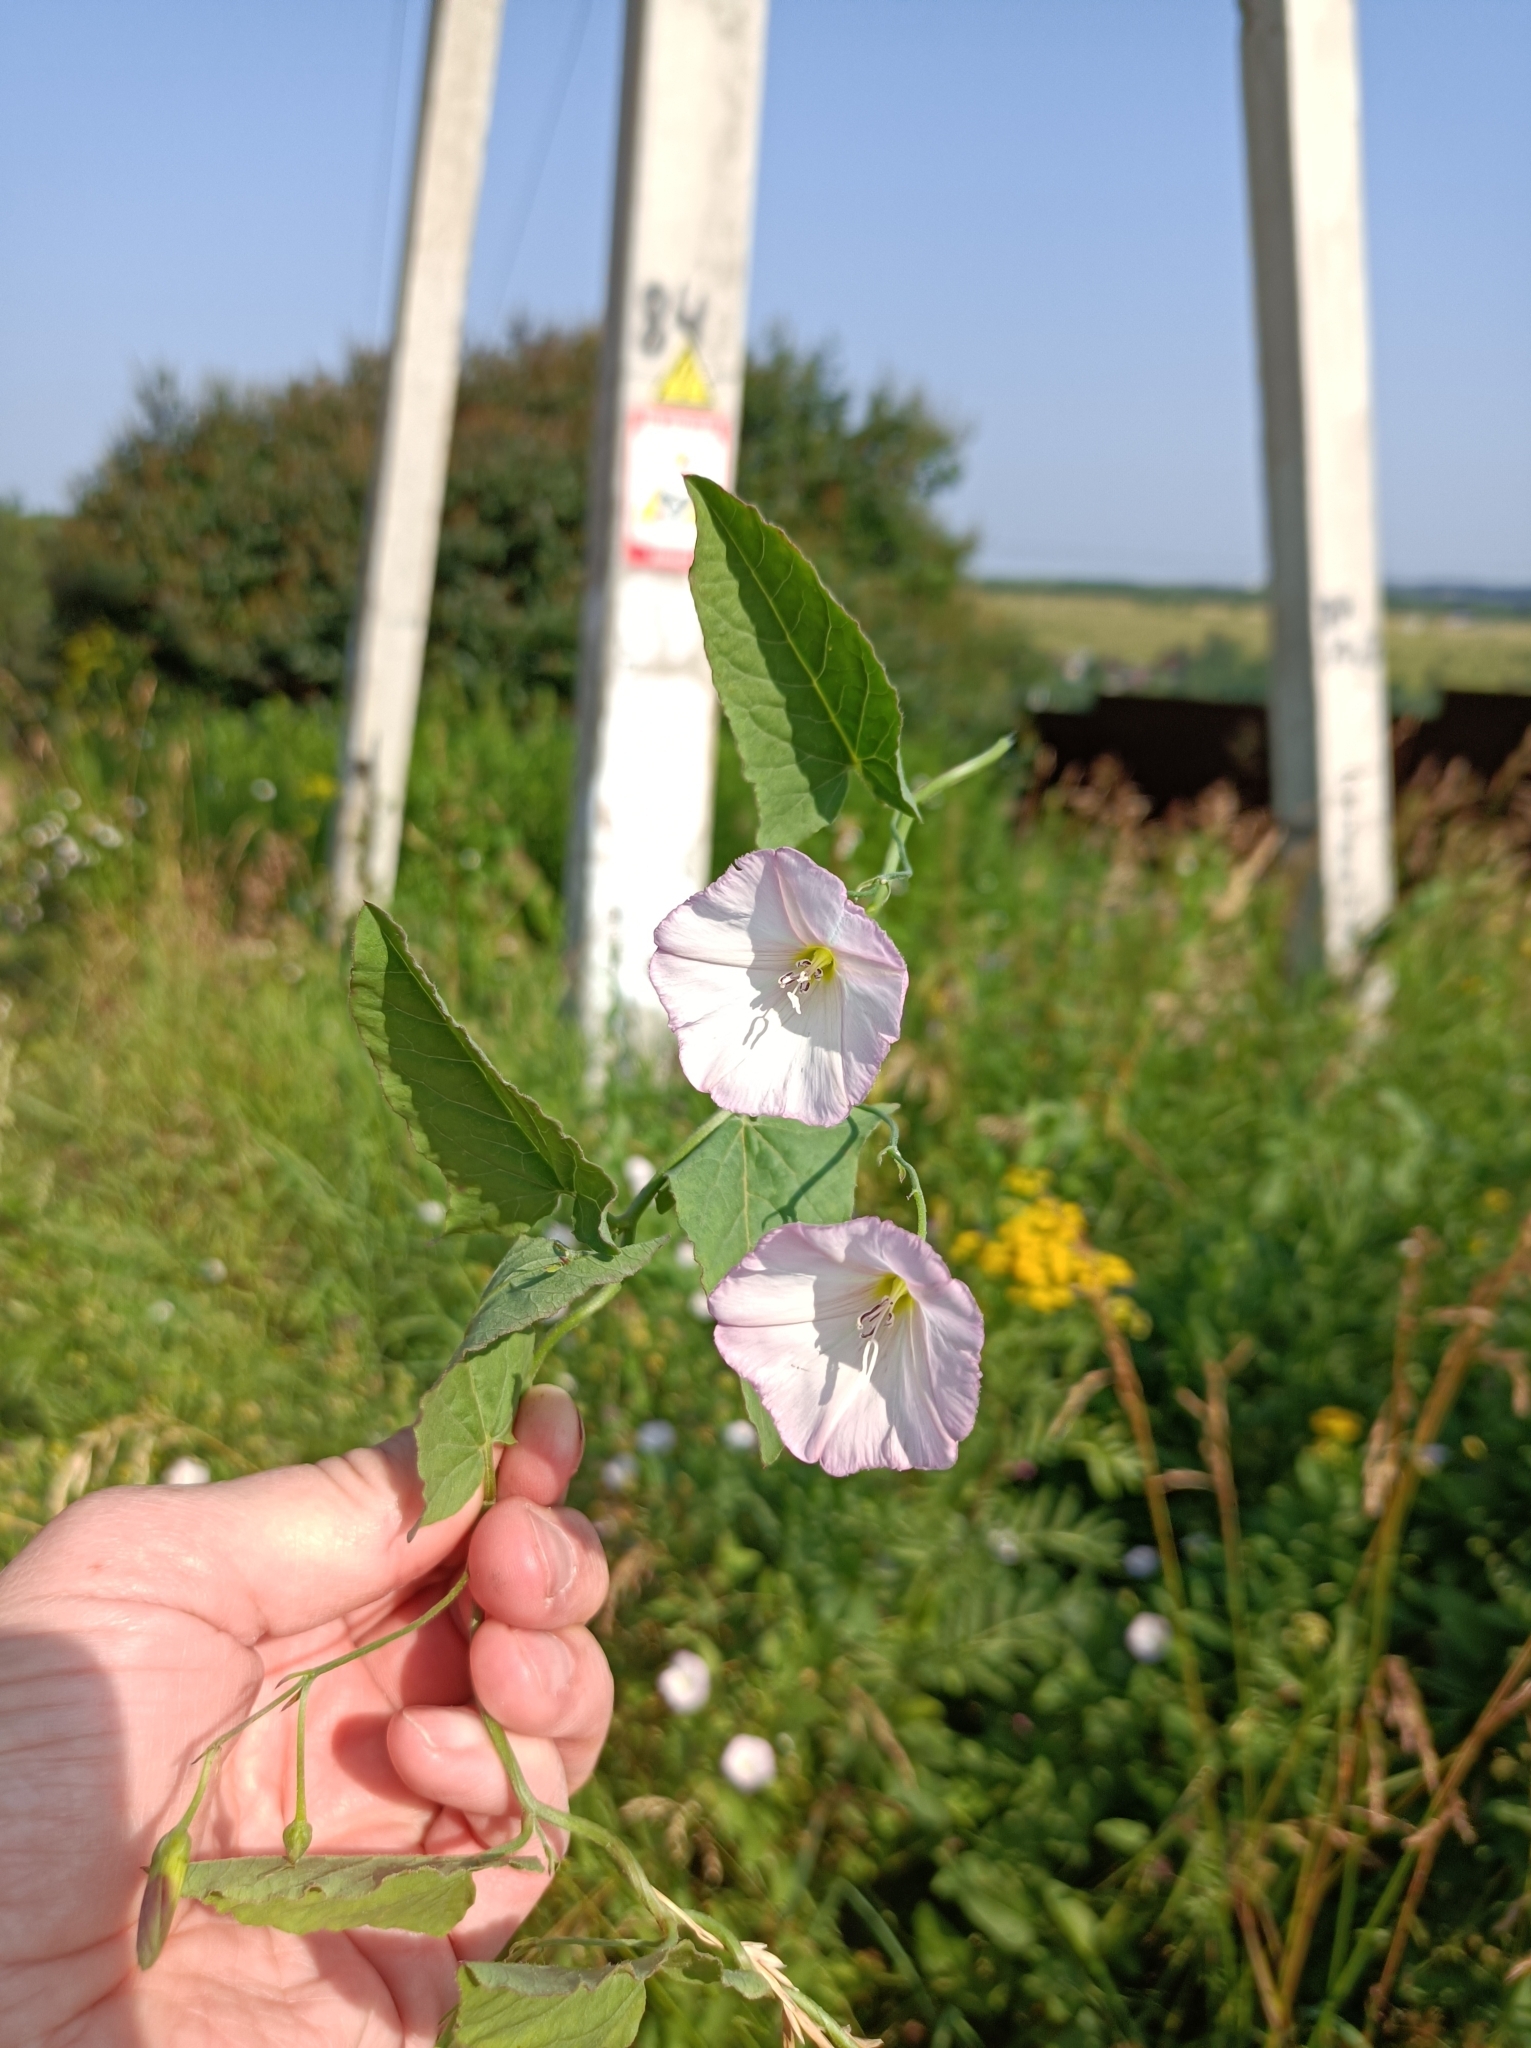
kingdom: Plantae
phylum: Tracheophyta
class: Magnoliopsida
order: Solanales
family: Convolvulaceae
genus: Convolvulus
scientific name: Convolvulus arvensis
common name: Field bindweed
